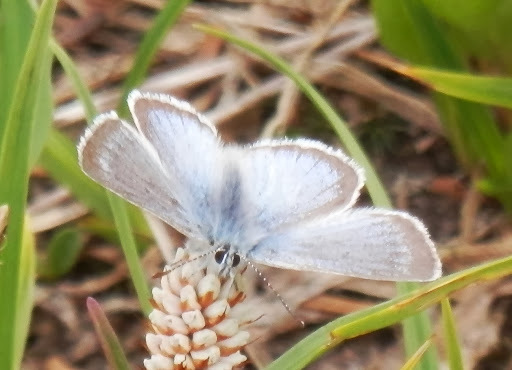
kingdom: Animalia
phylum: Arthropoda
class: Insecta
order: Lepidoptera
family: Lycaenidae
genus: Icaricia
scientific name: Icaricia icarioides
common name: Boisduval's blue
